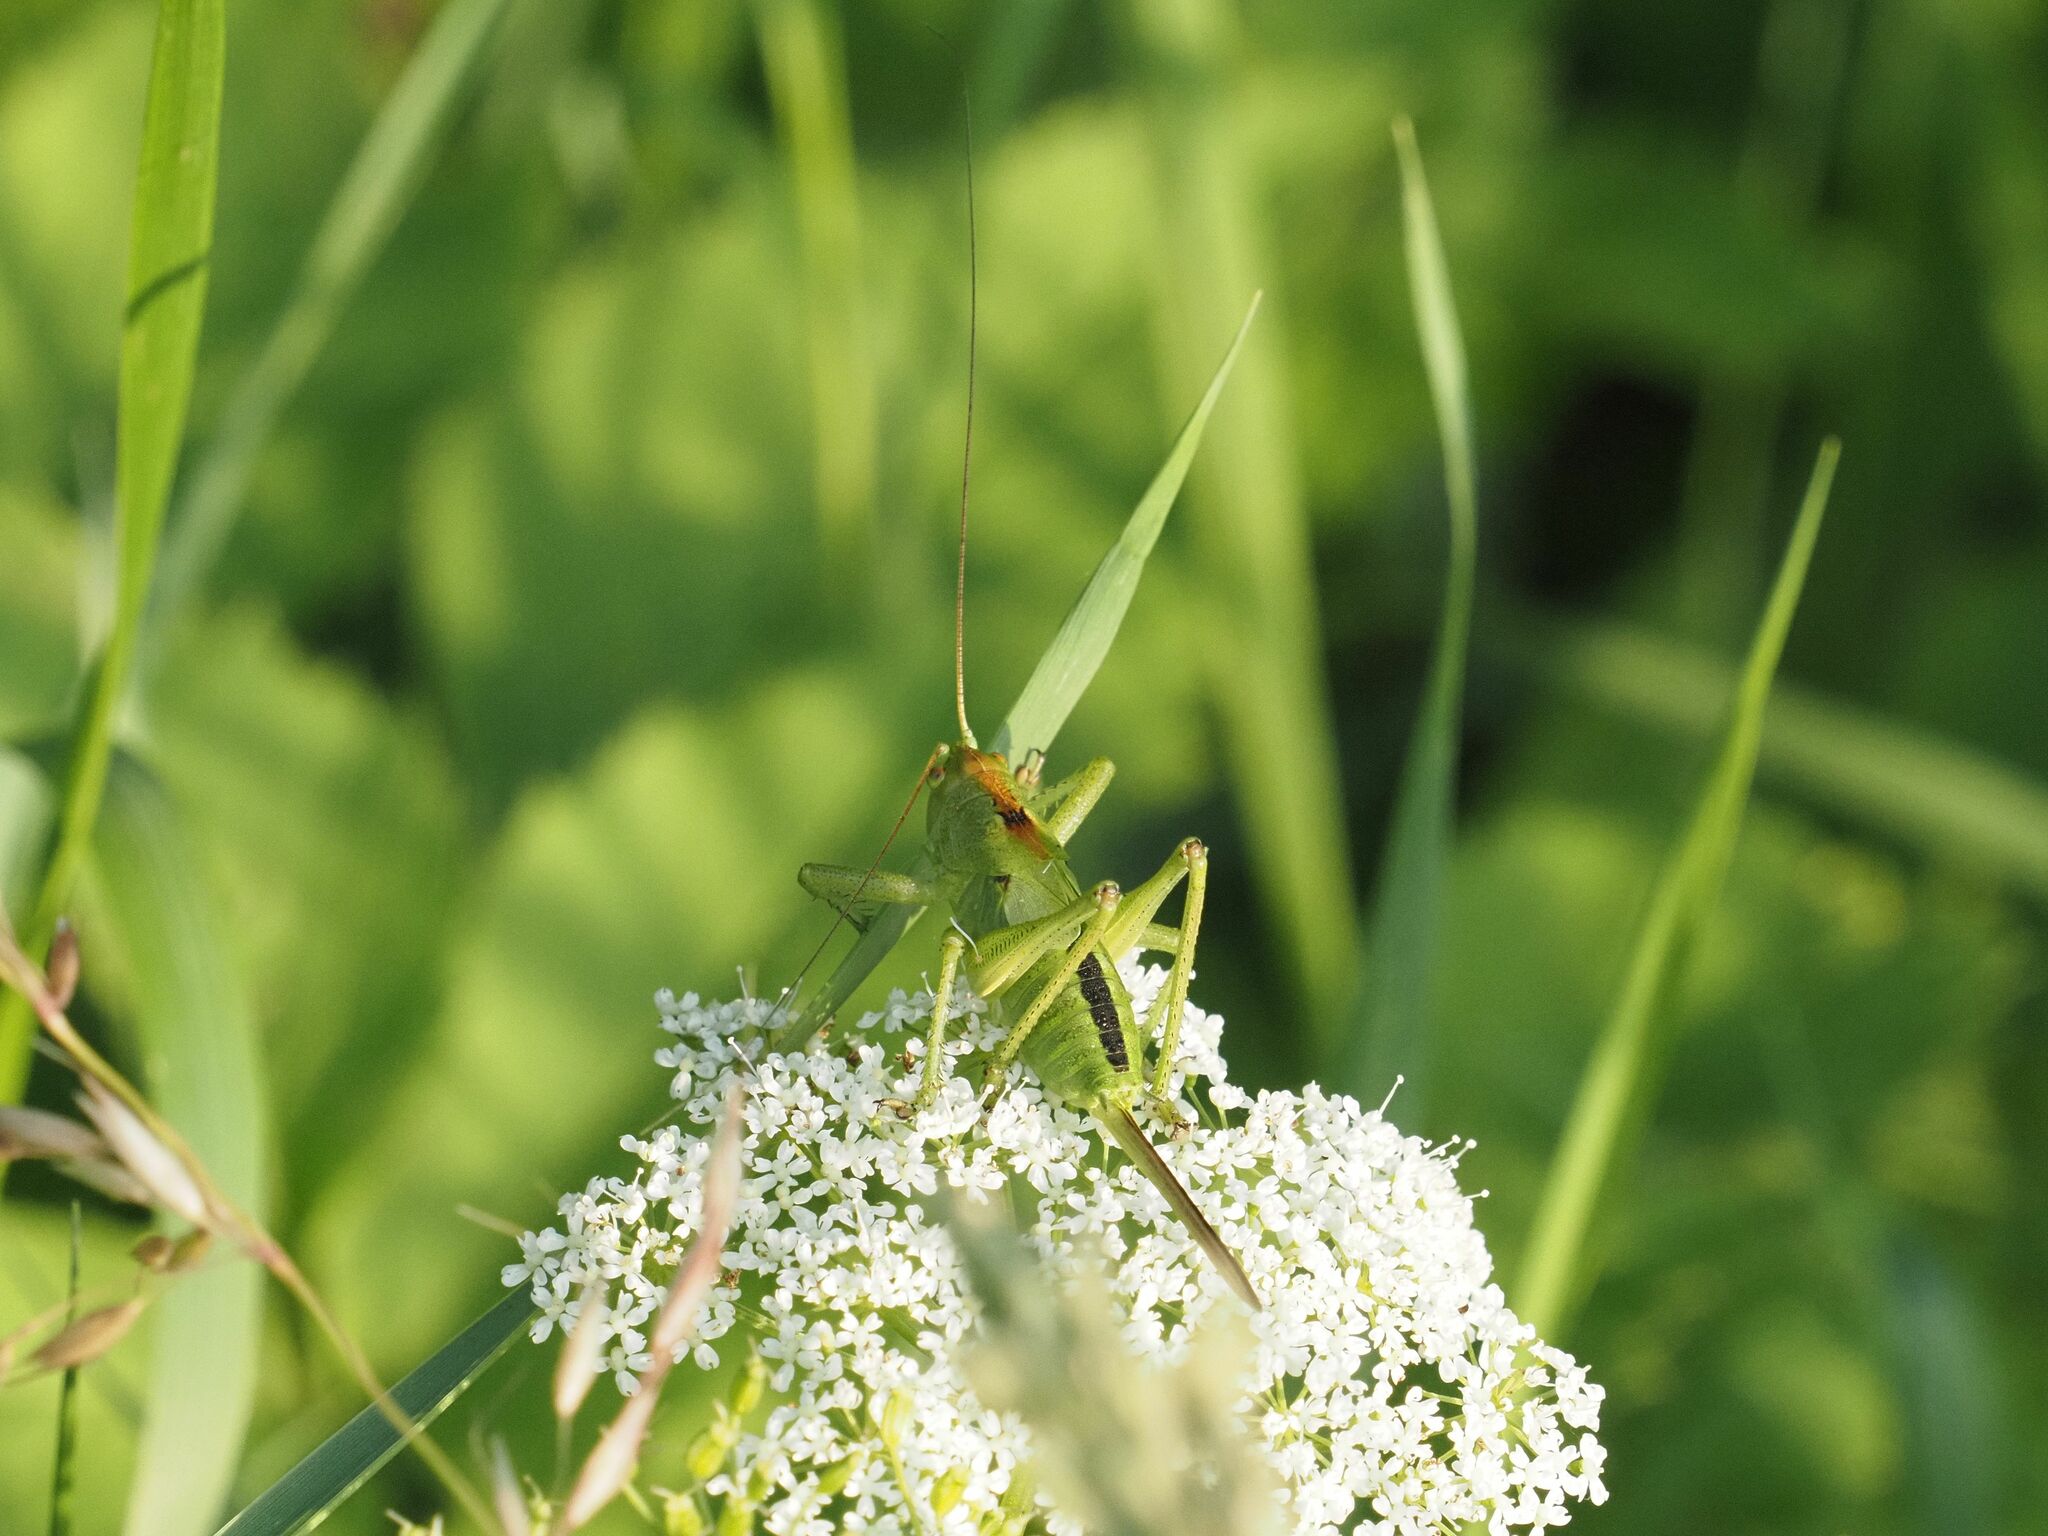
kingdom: Animalia
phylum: Arthropoda
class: Insecta
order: Orthoptera
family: Tettigoniidae
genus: Tettigonia
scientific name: Tettigonia cantans
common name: Upland green bush-cricket
